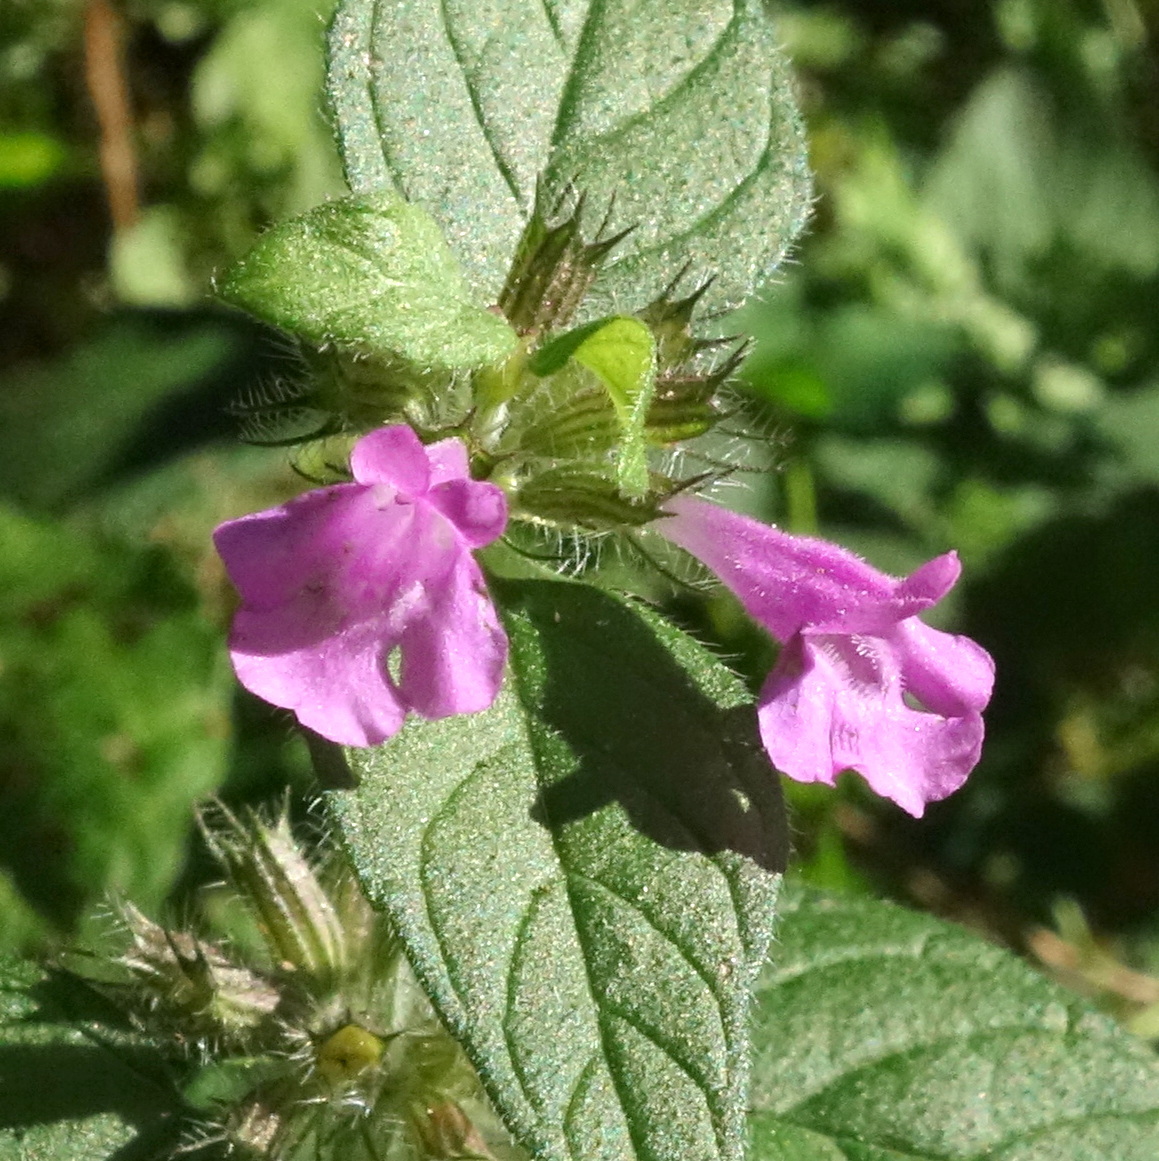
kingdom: Plantae
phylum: Tracheophyta
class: Magnoliopsida
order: Lamiales
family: Lamiaceae
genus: Clinopodium
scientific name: Clinopodium vulgare
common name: Wild basil
